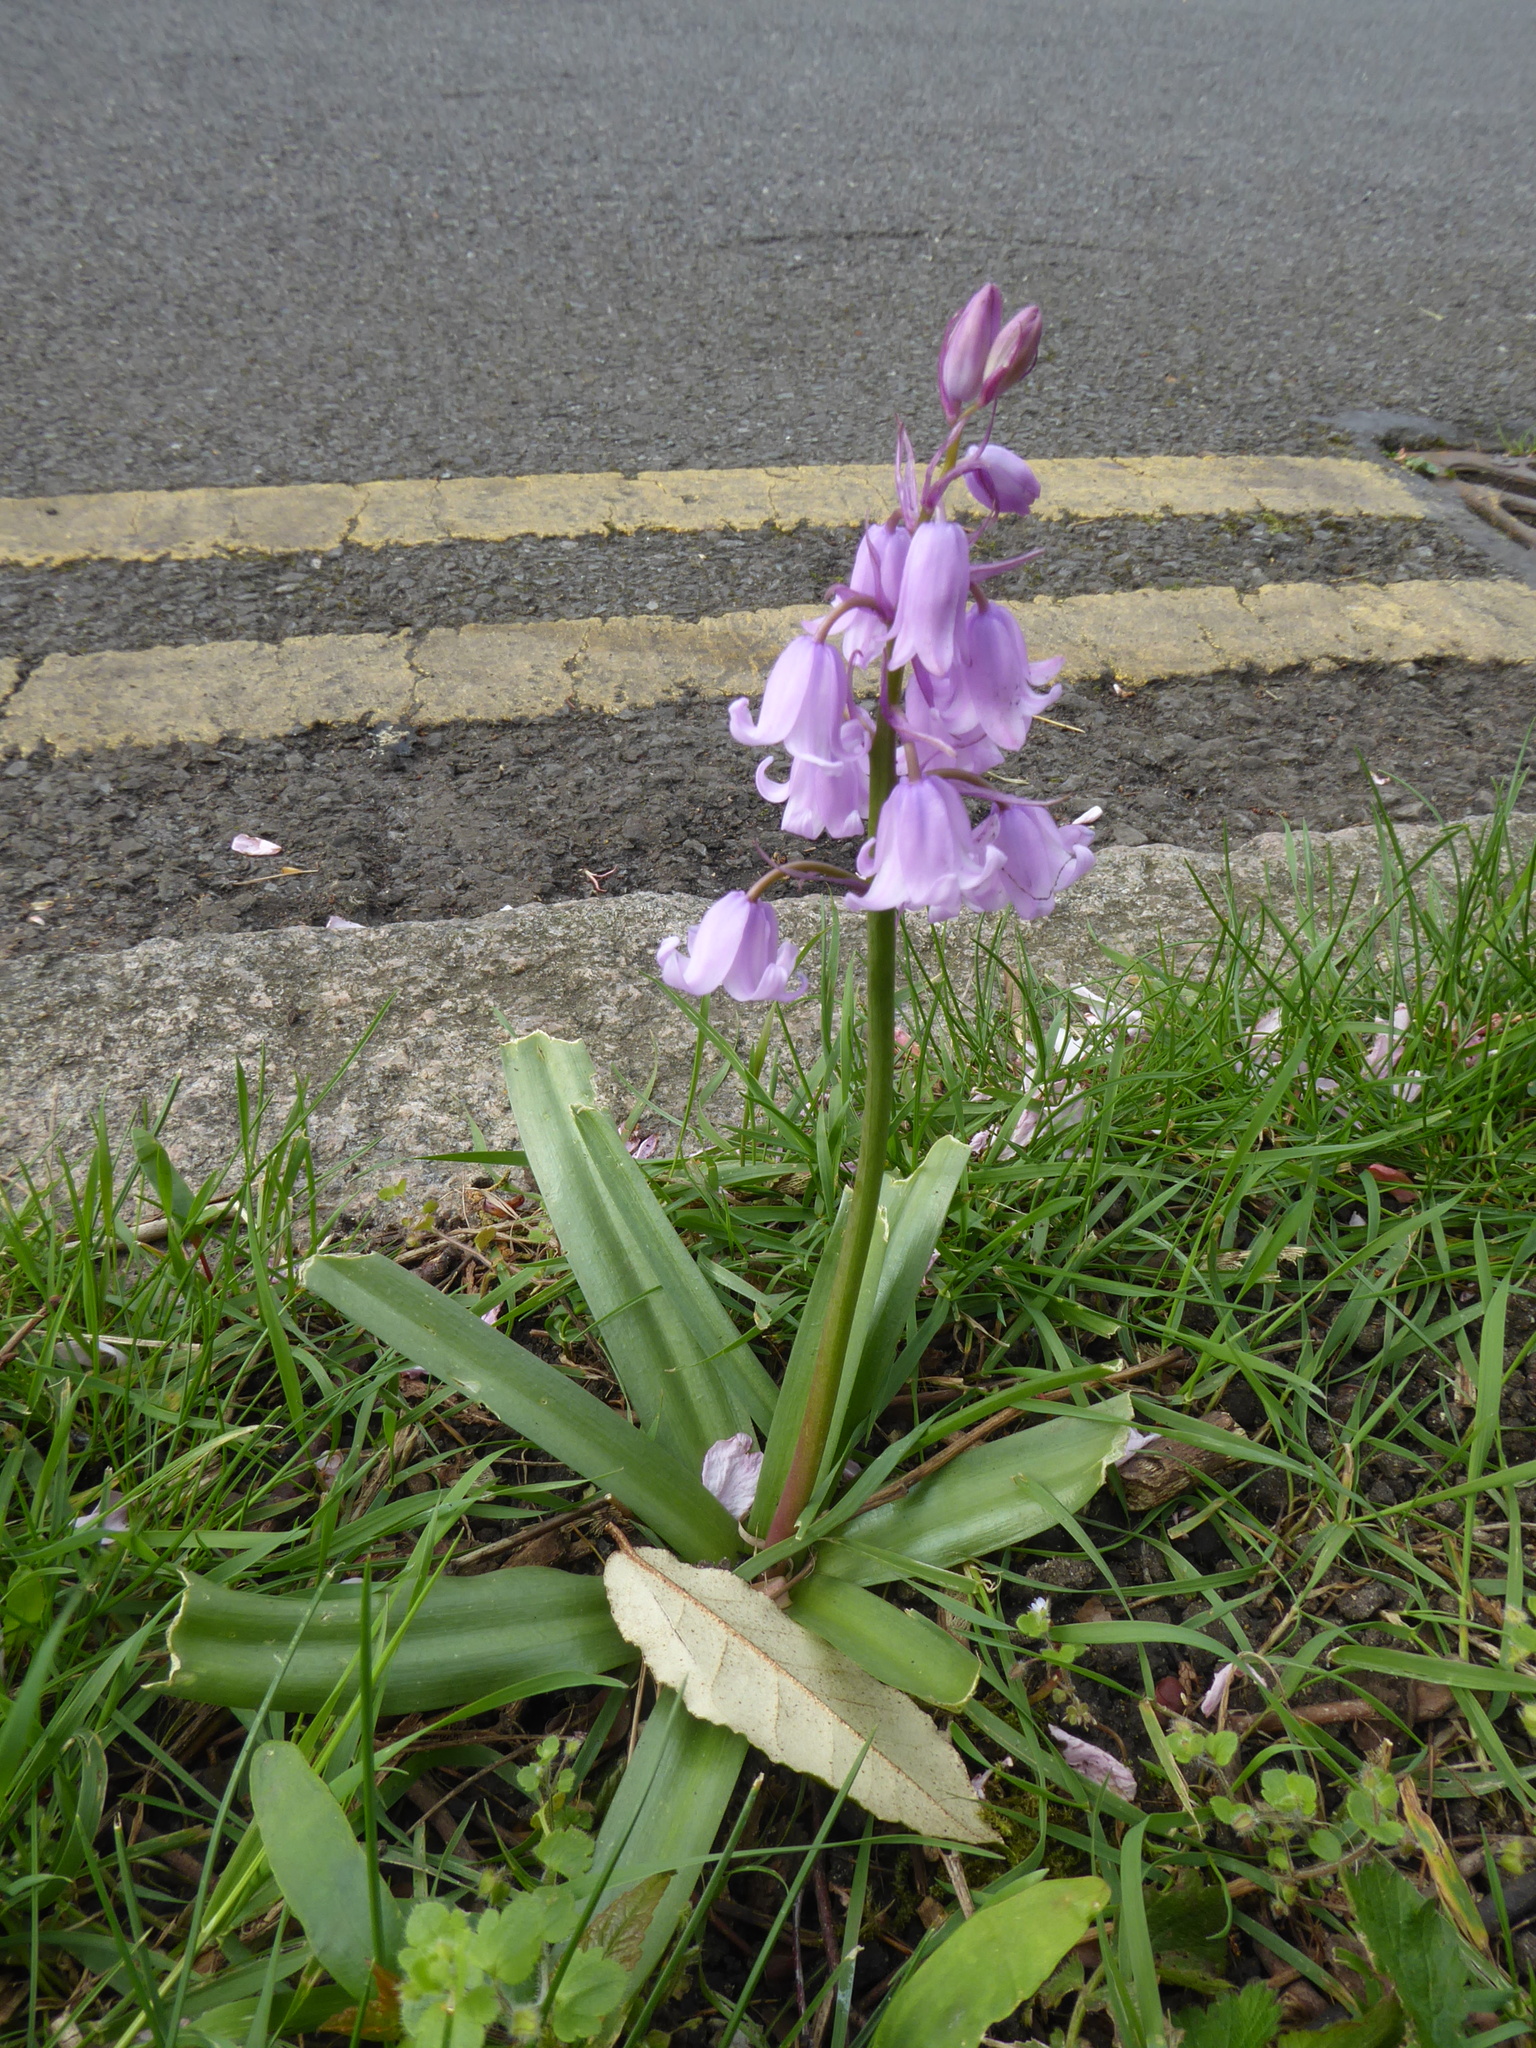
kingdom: Plantae
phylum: Tracheophyta
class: Liliopsida
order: Asparagales
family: Asparagaceae
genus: Hyacinthoides
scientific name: Hyacinthoides massartiana
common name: Hyacinthoides
